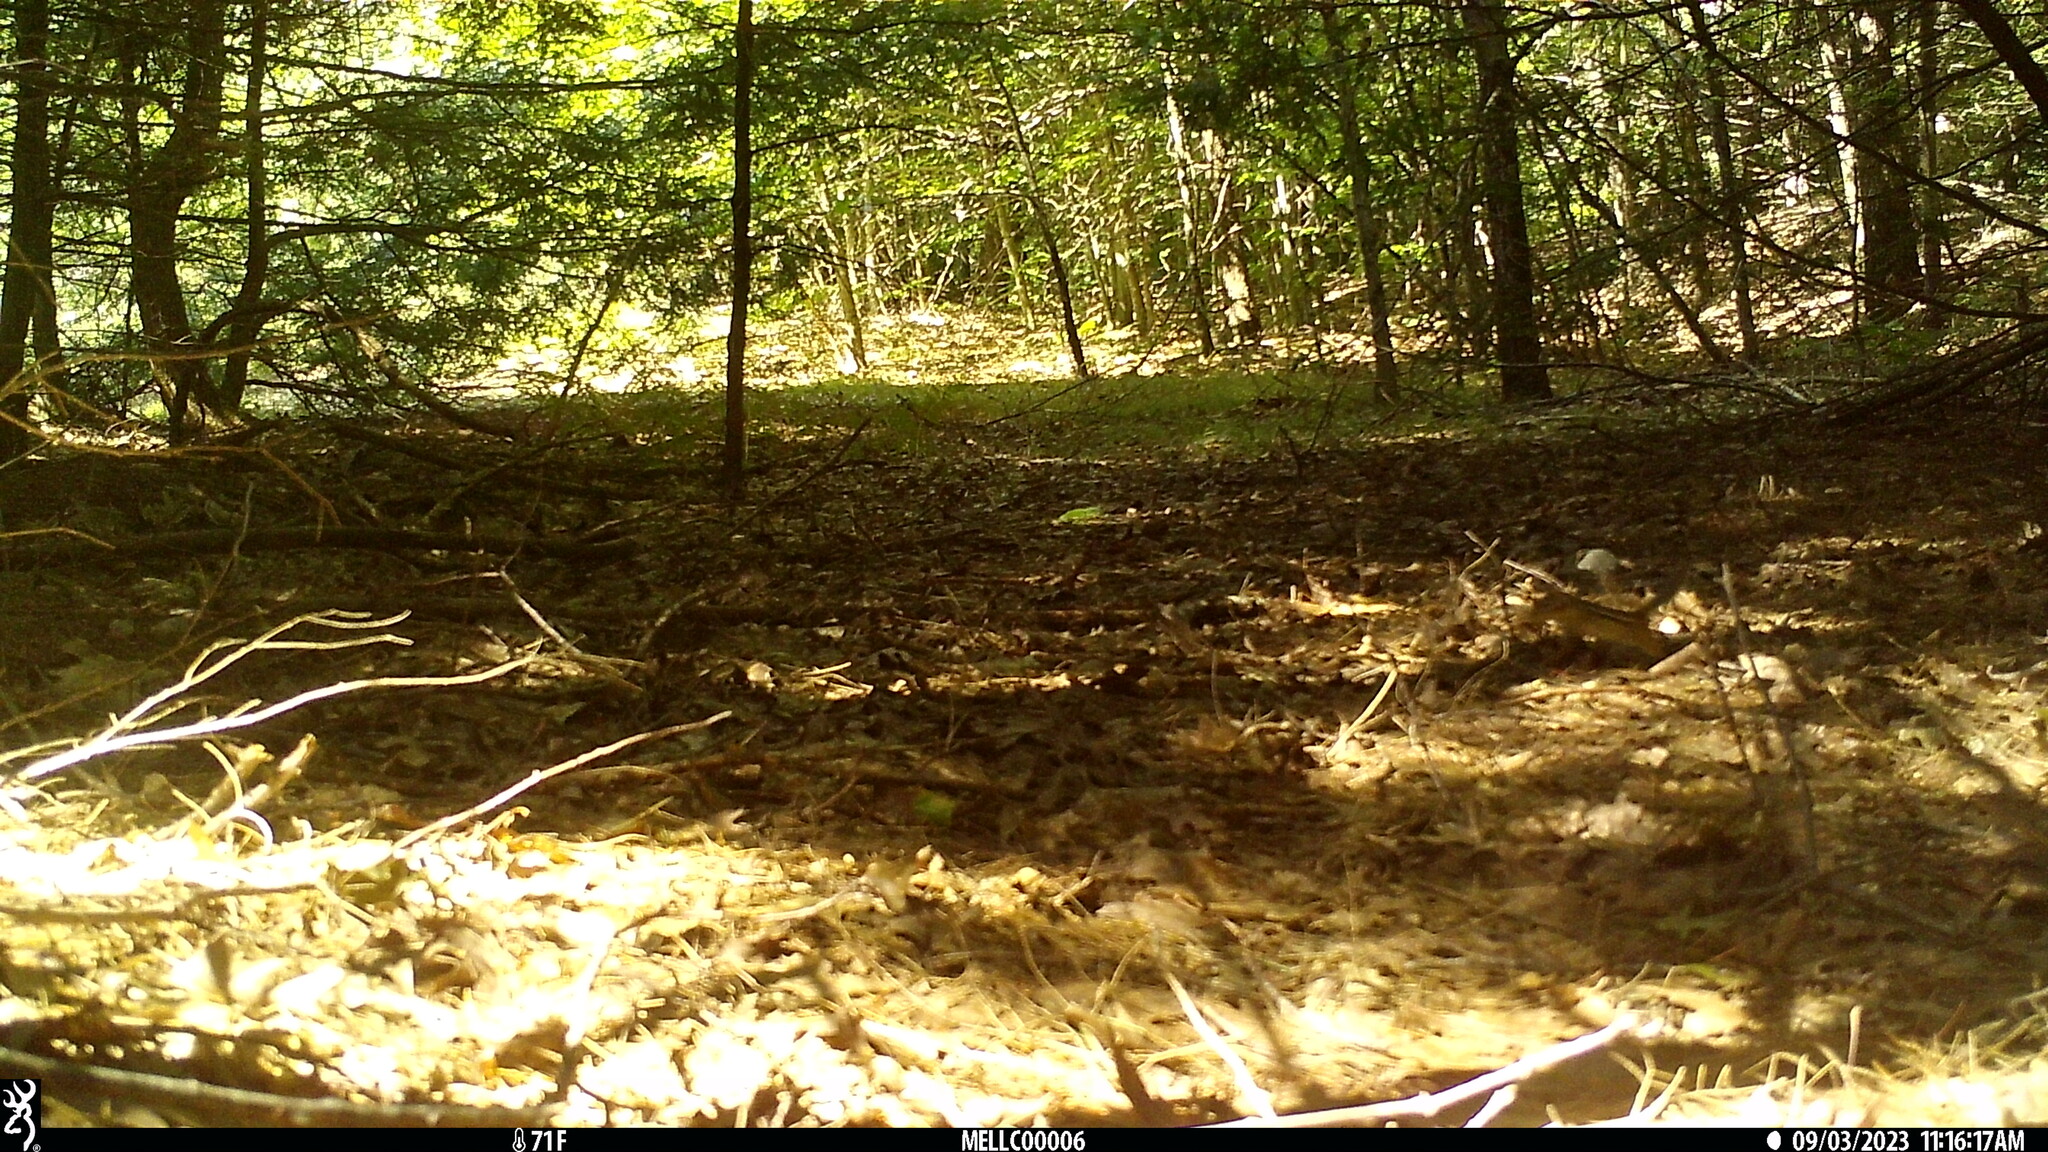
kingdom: Animalia
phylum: Chordata
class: Mammalia
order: Rodentia
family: Sciuridae
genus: Tamias
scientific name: Tamias striatus
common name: Eastern chipmunk
